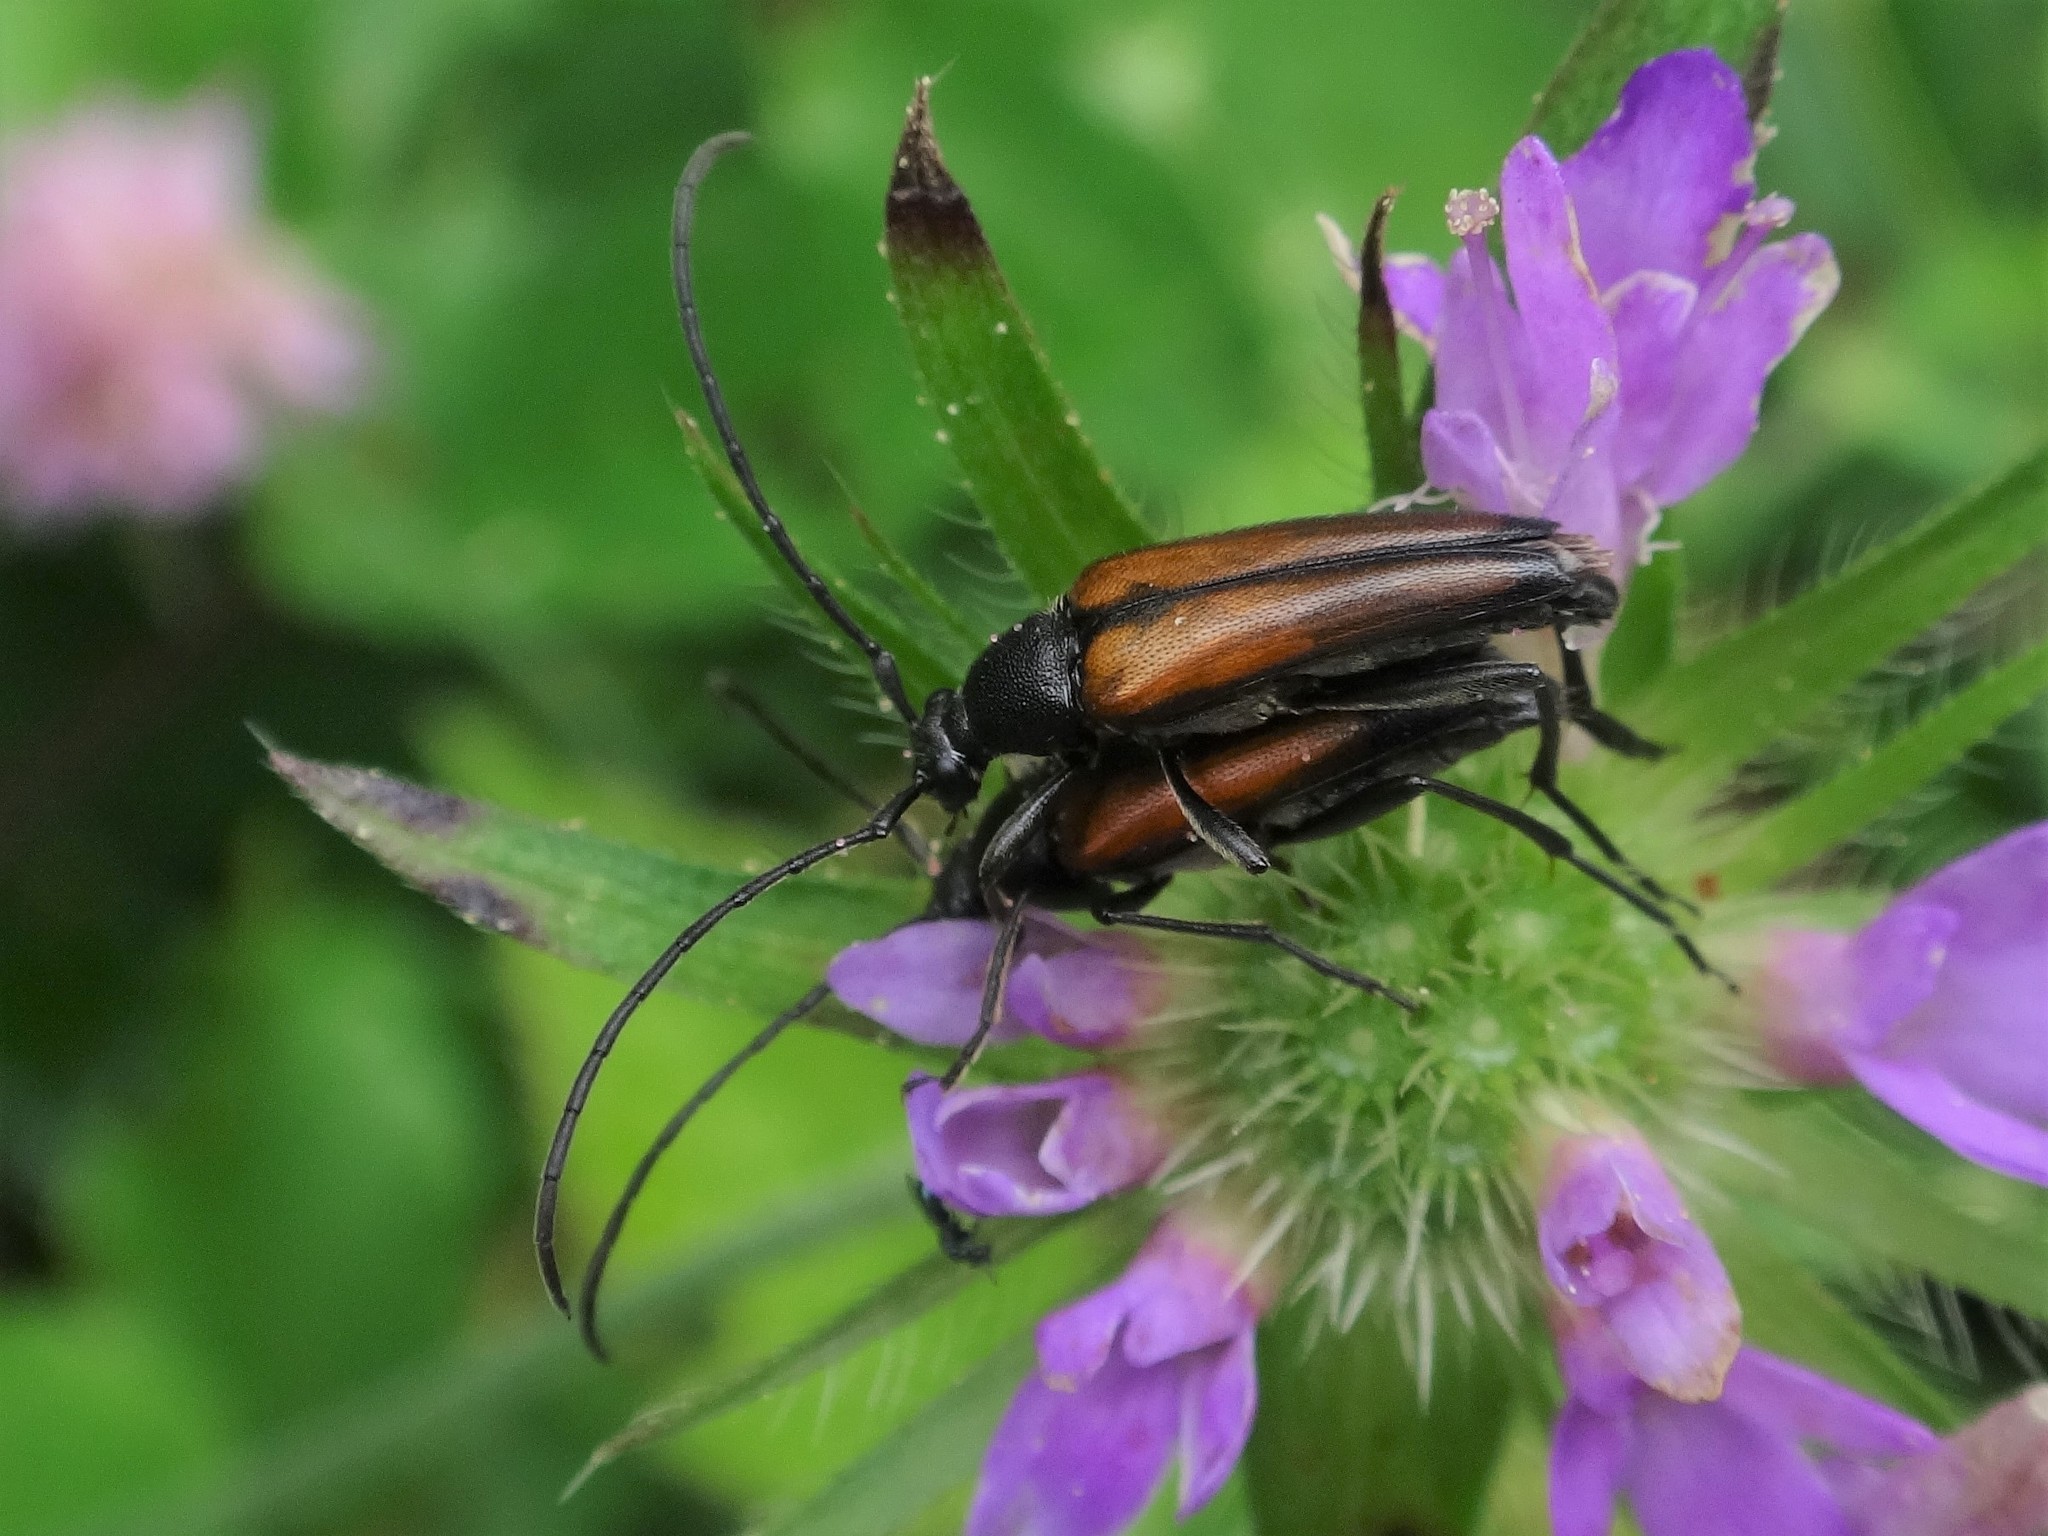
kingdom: Animalia
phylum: Arthropoda
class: Insecta
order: Coleoptera
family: Cerambycidae
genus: Stenurella
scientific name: Stenurella melanura
